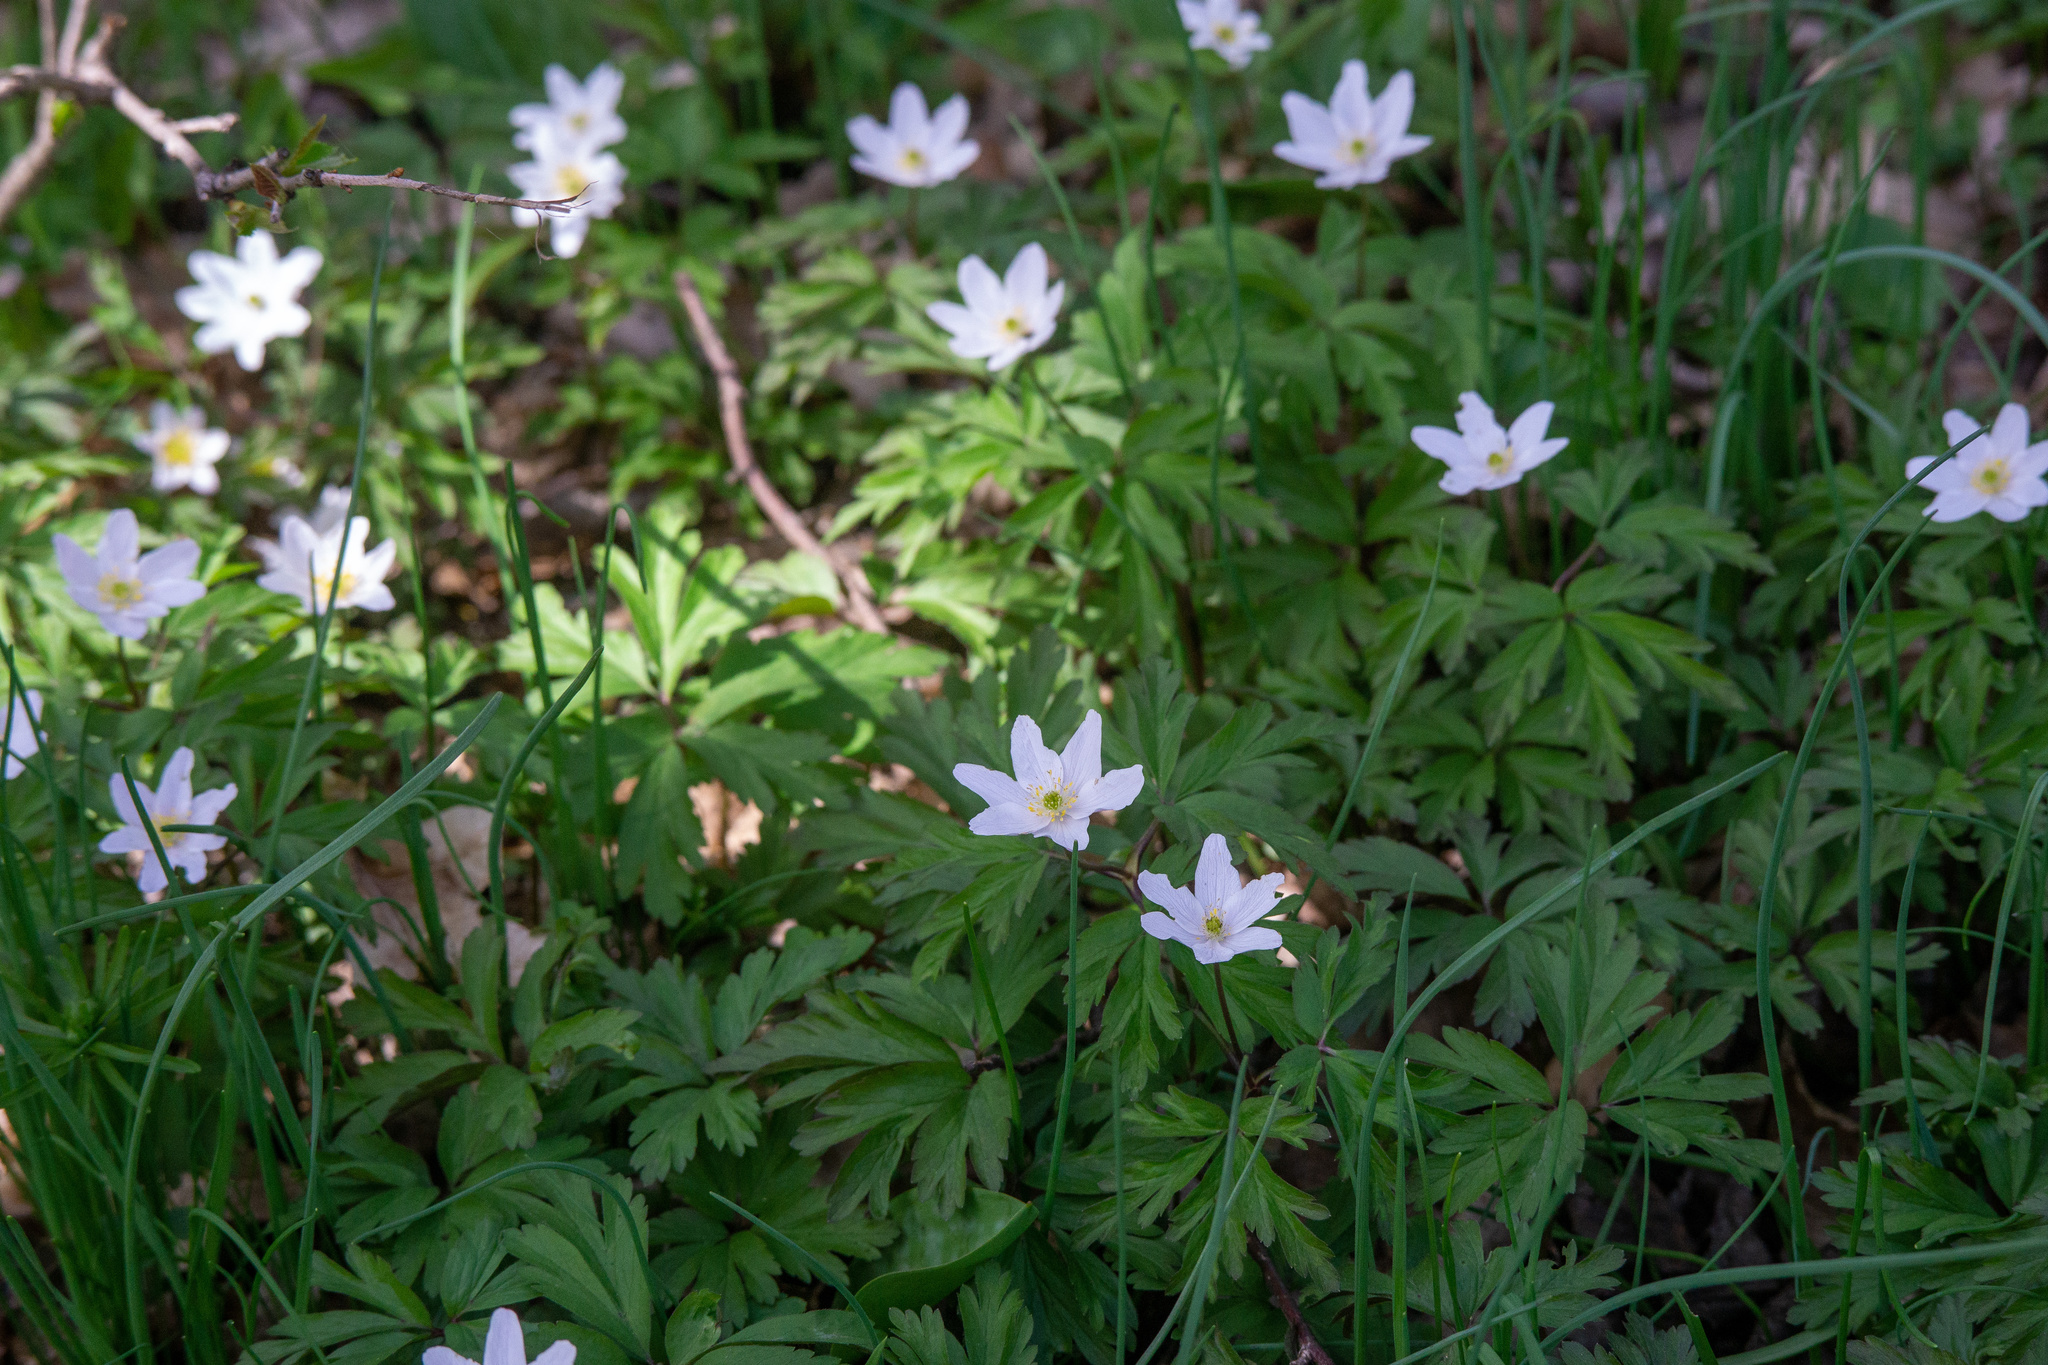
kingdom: Plantae
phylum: Tracheophyta
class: Magnoliopsida
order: Ranunculales
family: Ranunculaceae
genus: Anemone
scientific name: Anemone nemorosa
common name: Wood anemone
